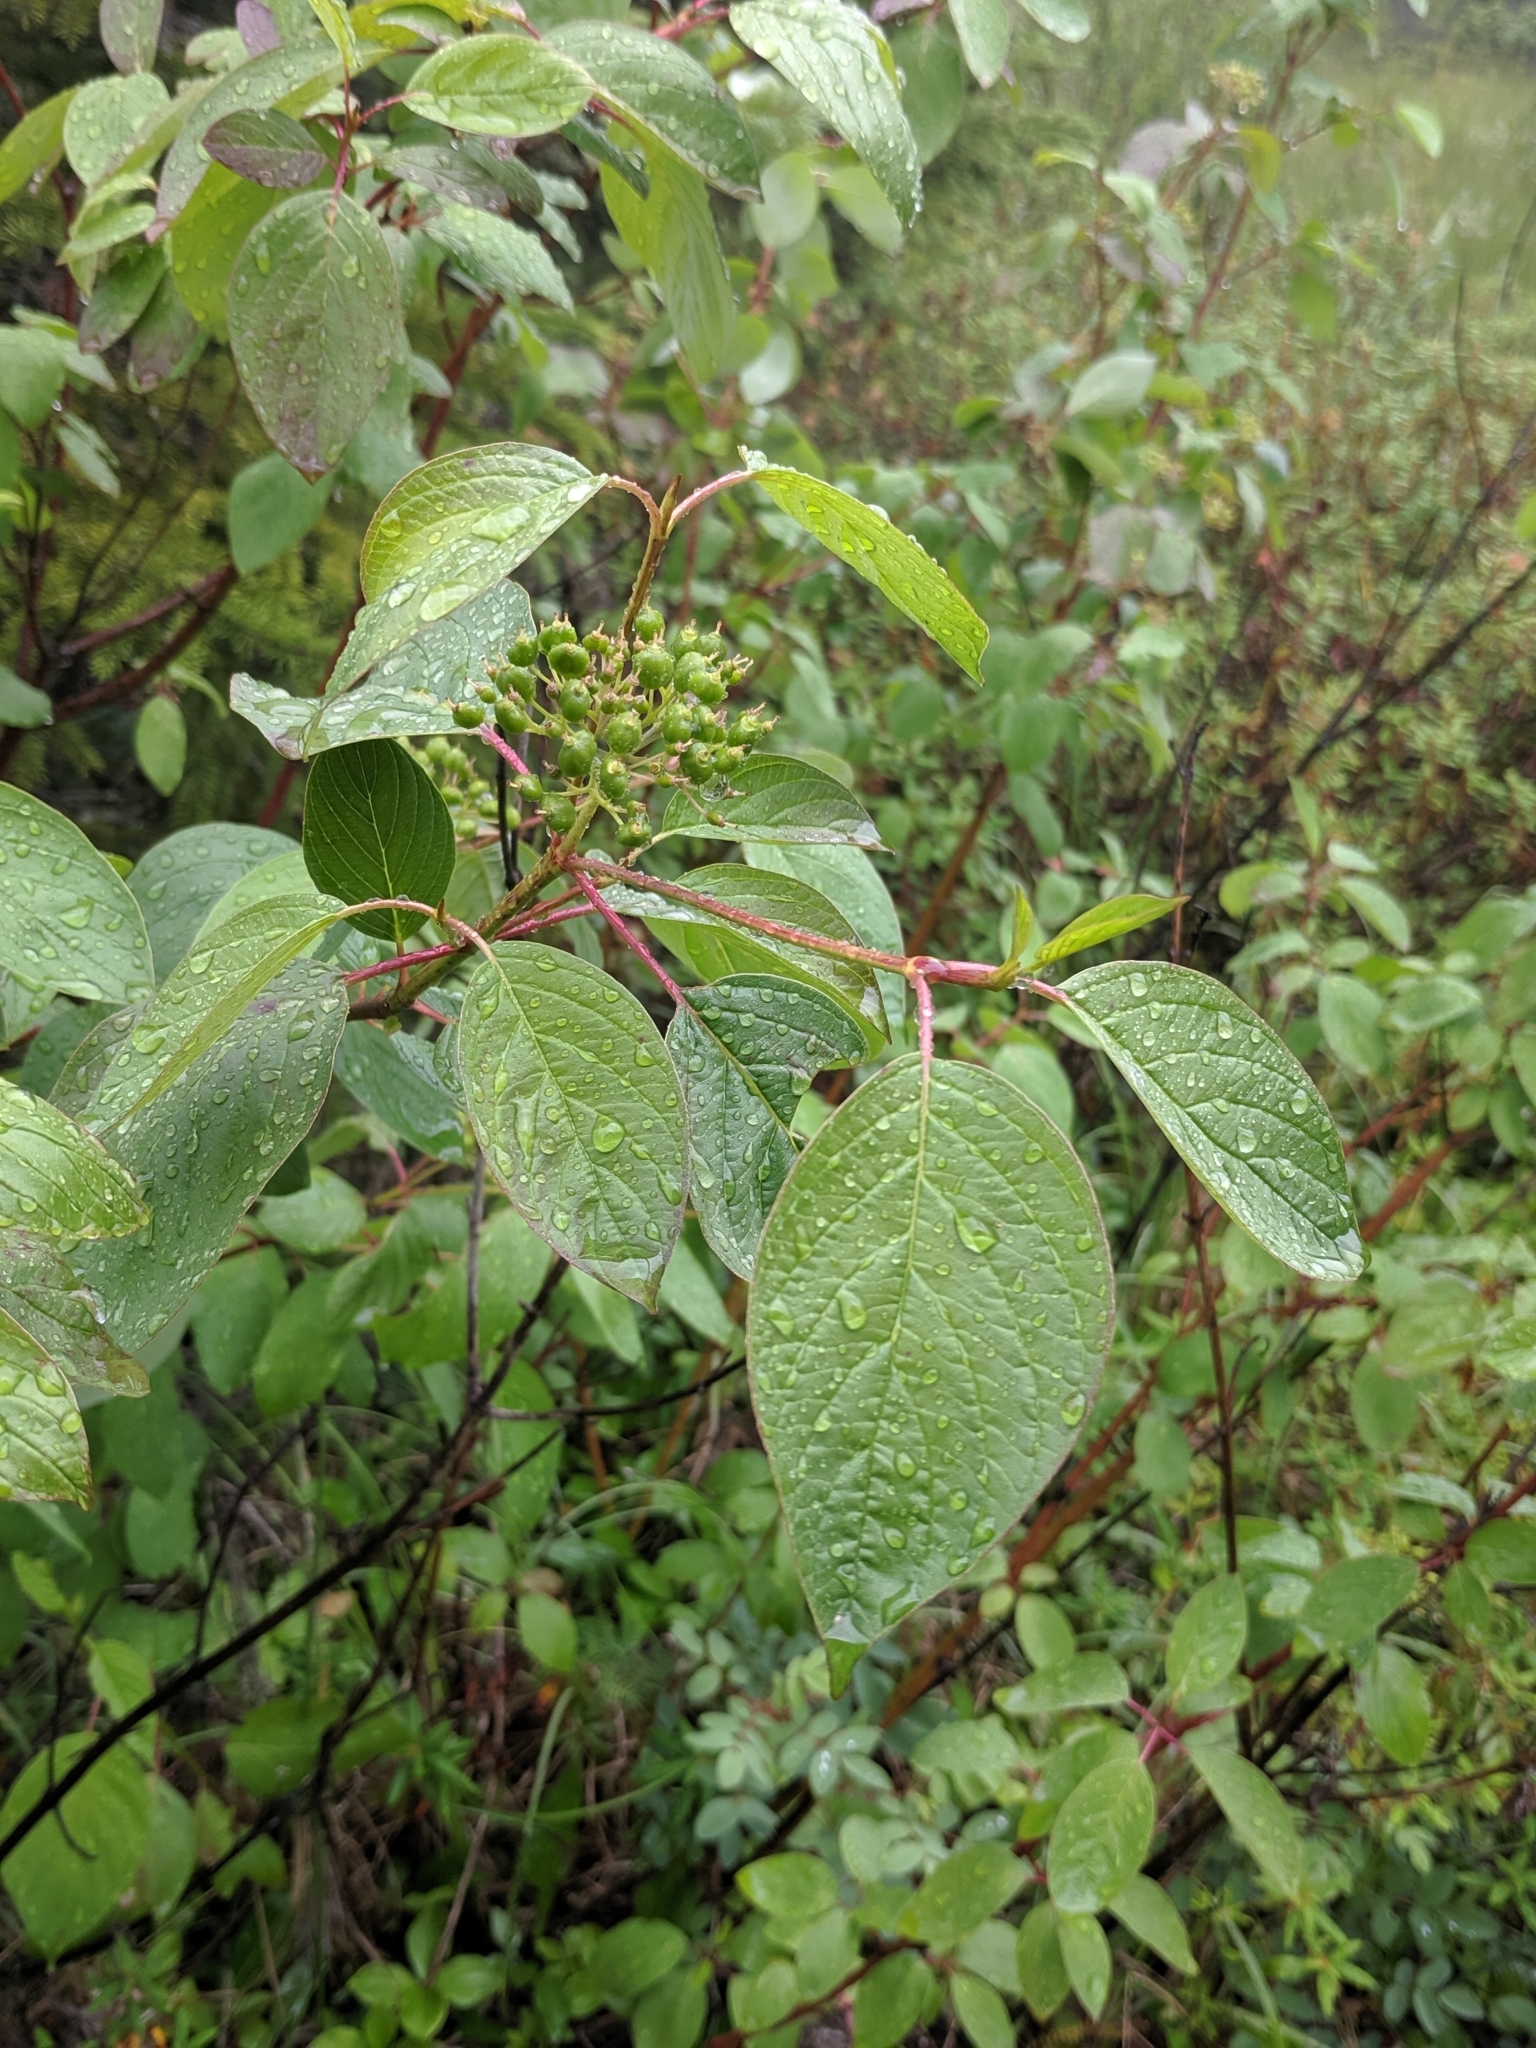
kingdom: Plantae
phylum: Tracheophyta
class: Magnoliopsida
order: Cornales
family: Cornaceae
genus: Cornus
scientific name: Cornus sericea
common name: Red-osier dogwood
